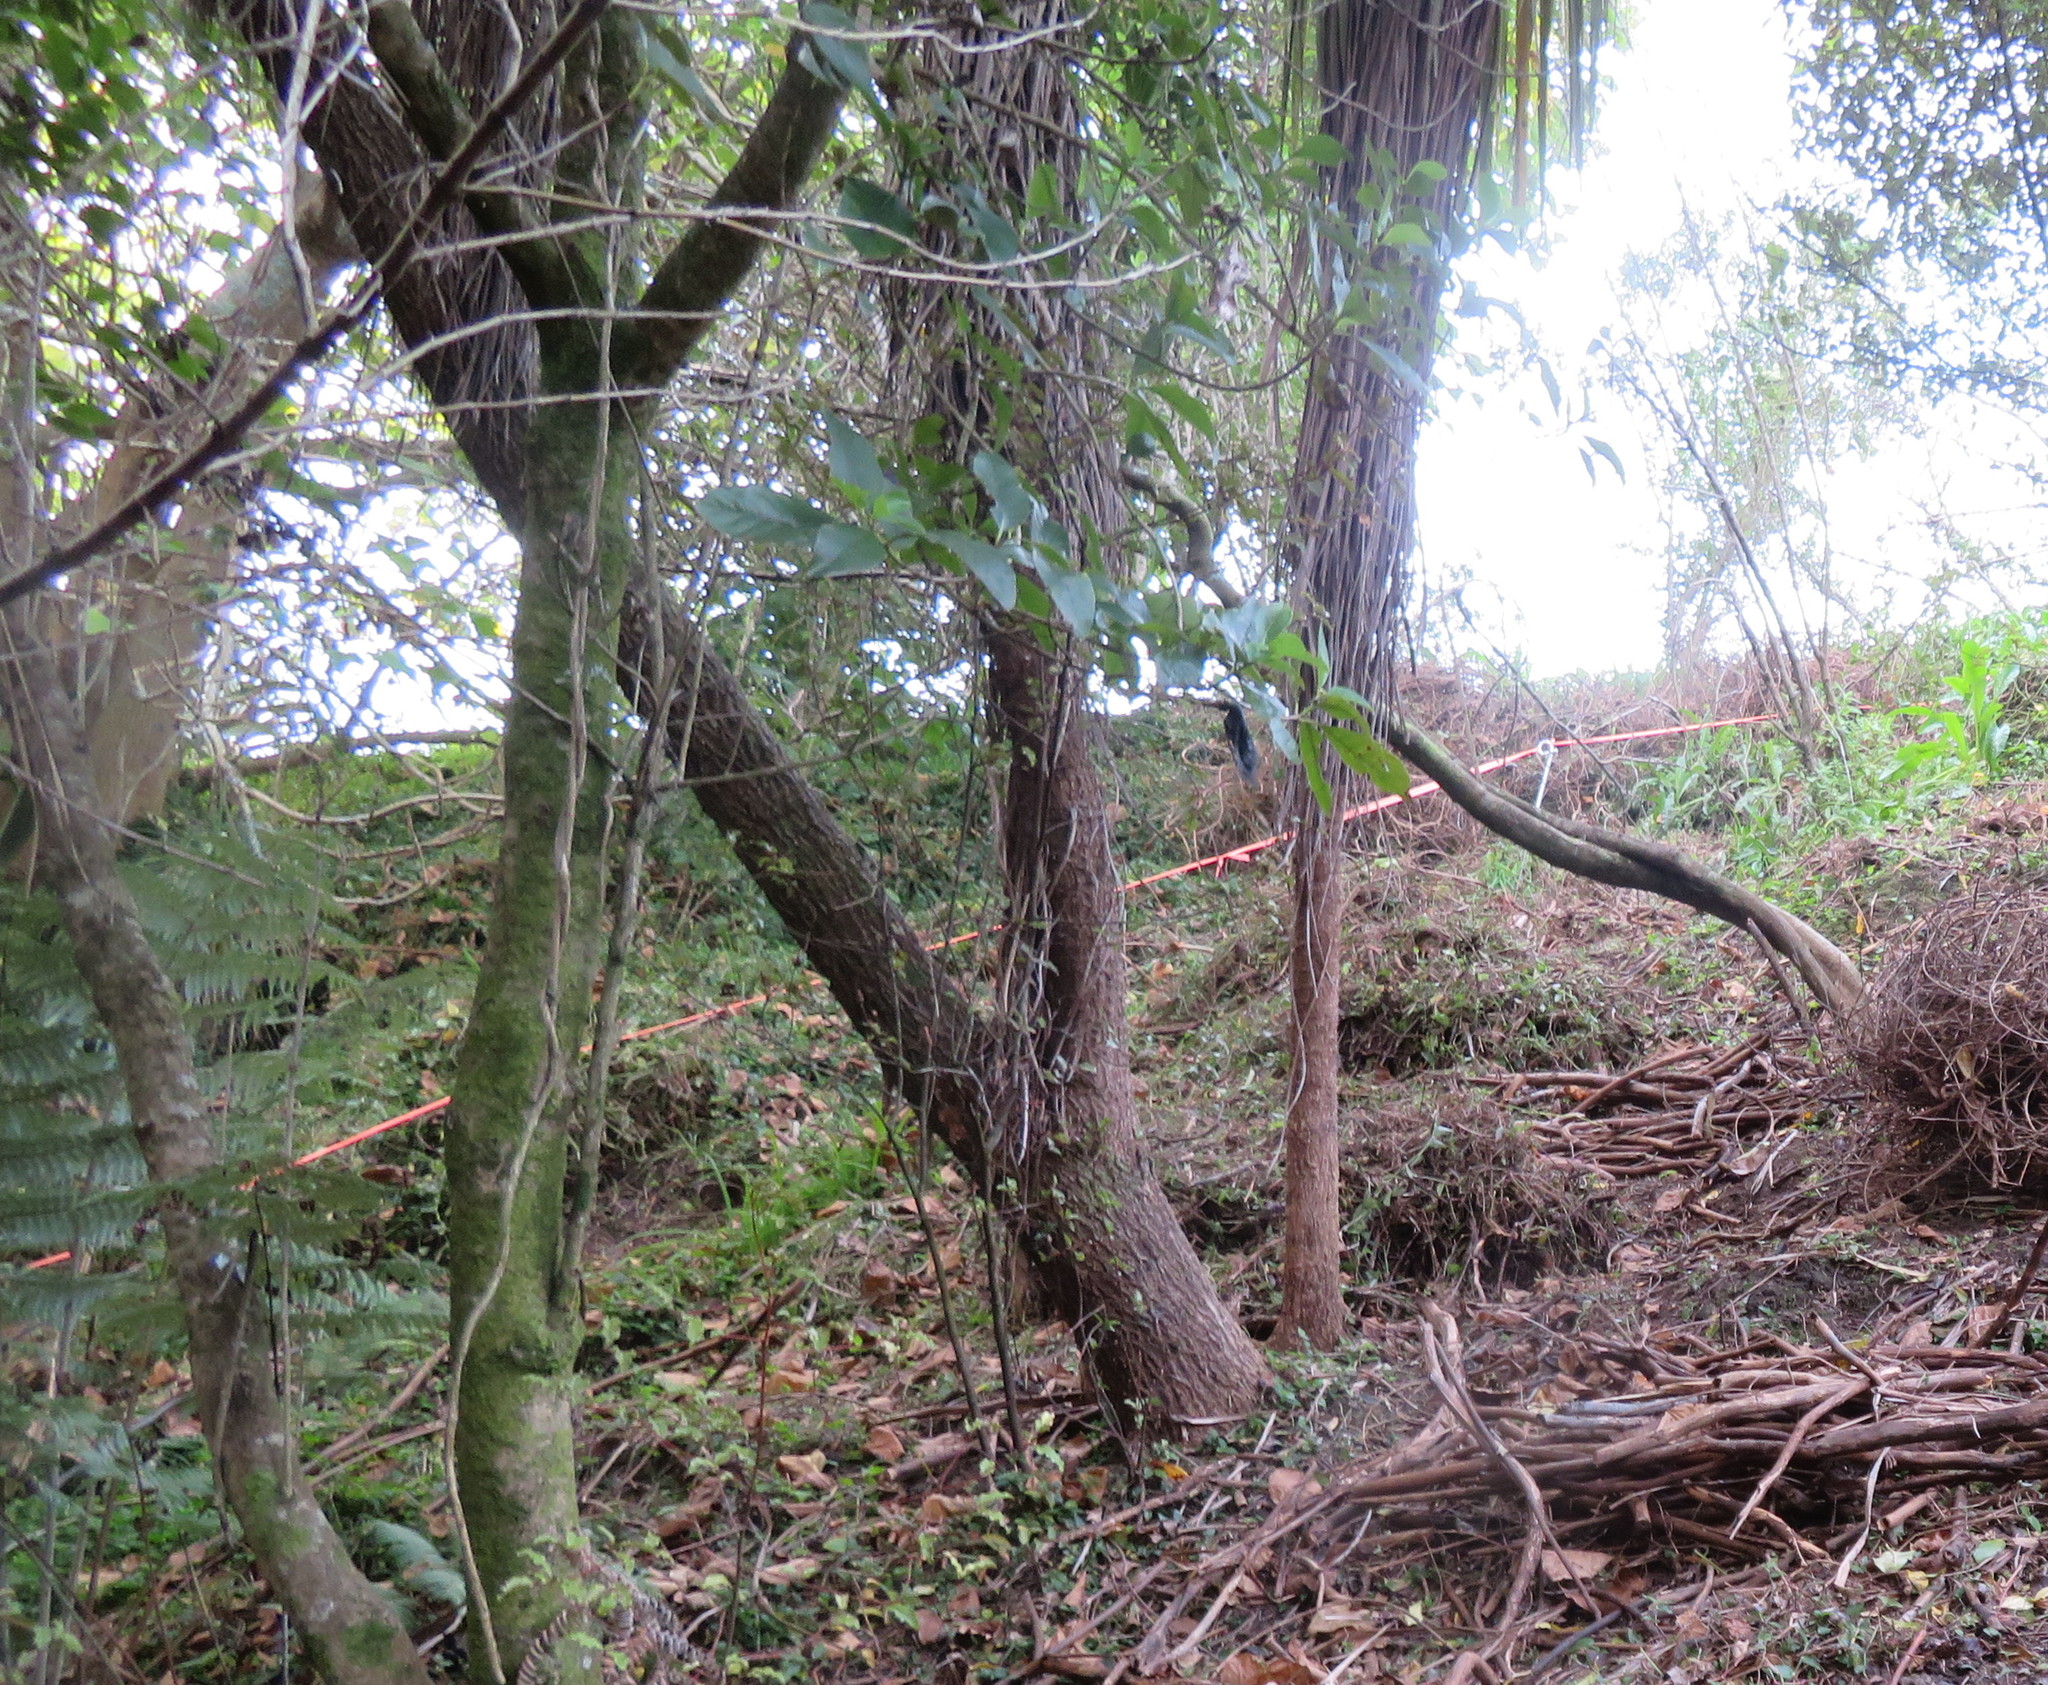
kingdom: Plantae
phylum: Tracheophyta
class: Liliopsida
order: Asparagales
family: Asparagaceae
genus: Cordyline
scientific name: Cordyline australis
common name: Cabbage-palm
